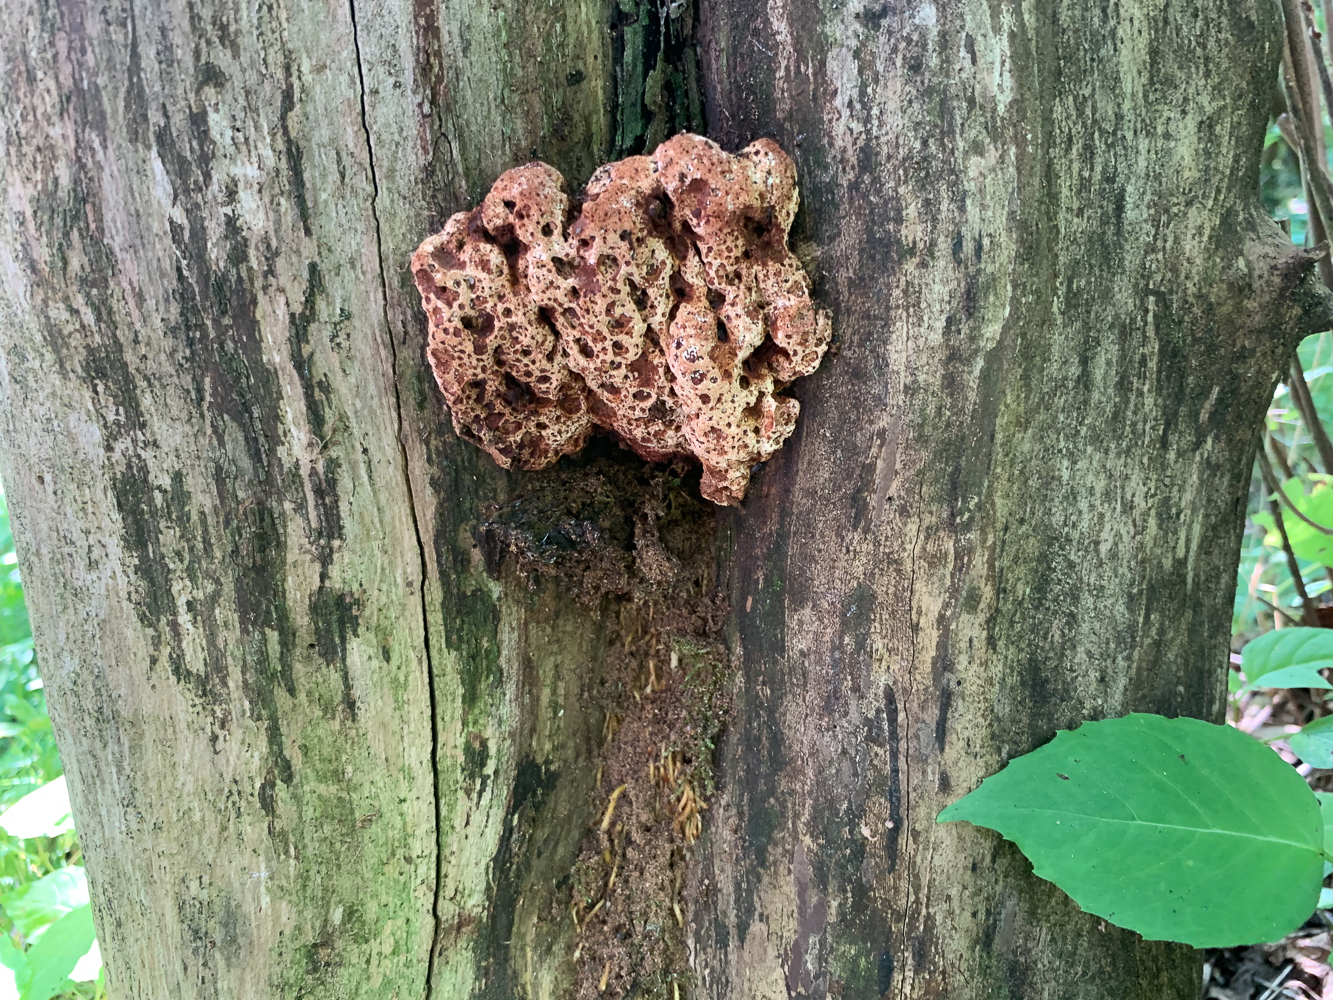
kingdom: Fungi
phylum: Basidiomycota
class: Agaricomycetes
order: Polyporales
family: Podoscyphaceae
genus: Abortiporus
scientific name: Abortiporus biennis
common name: Blushing rosette
